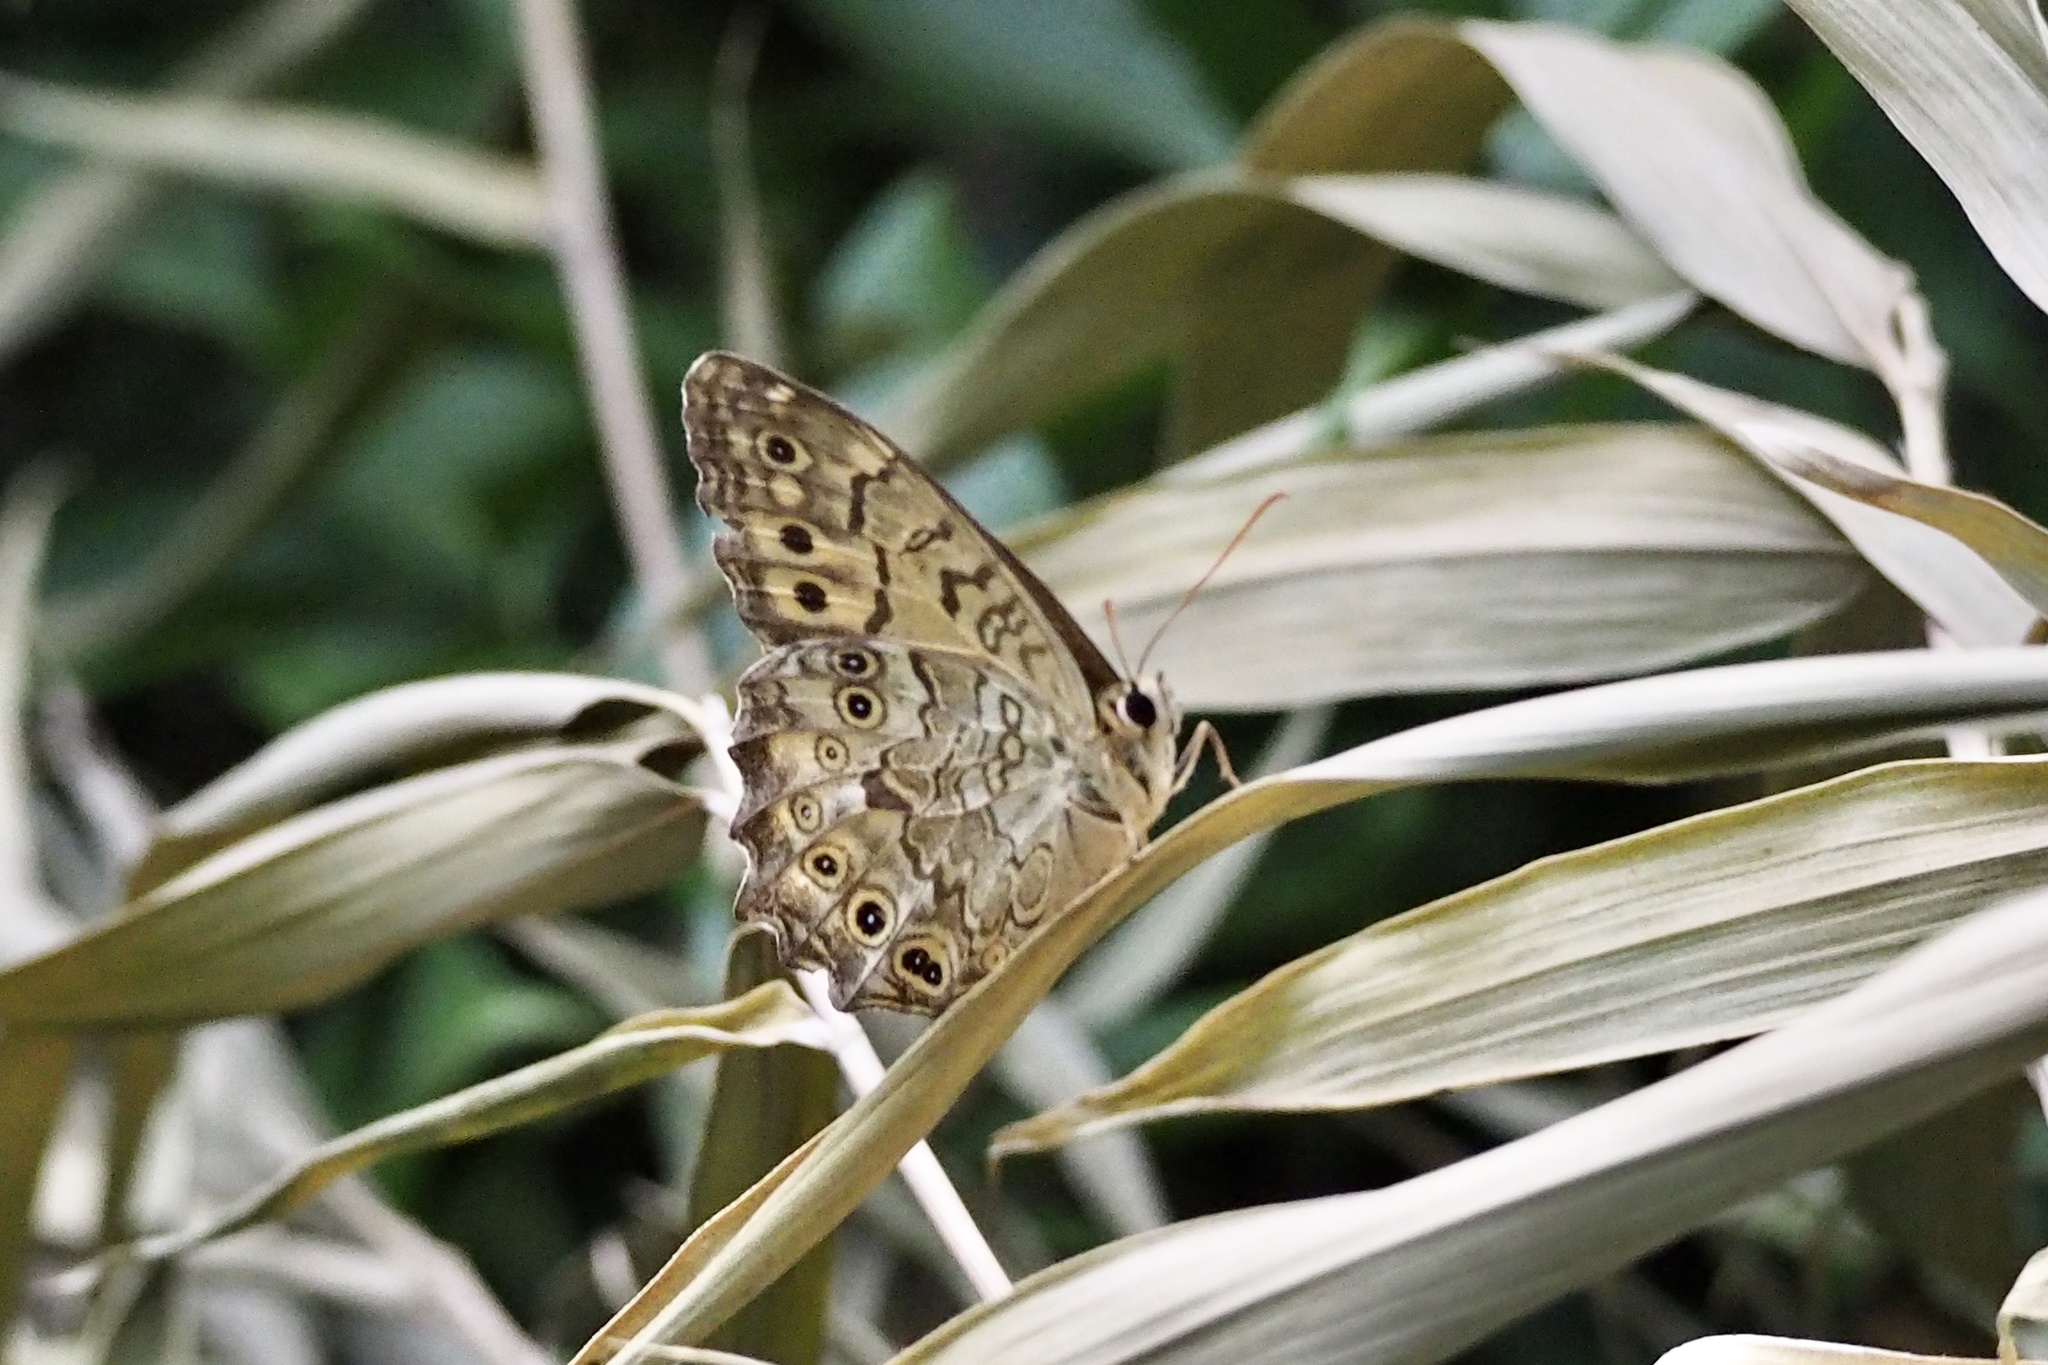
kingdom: Animalia
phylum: Arthropoda
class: Insecta
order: Lepidoptera
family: Nymphalidae
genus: Neope
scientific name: Neope goschkevitschii
